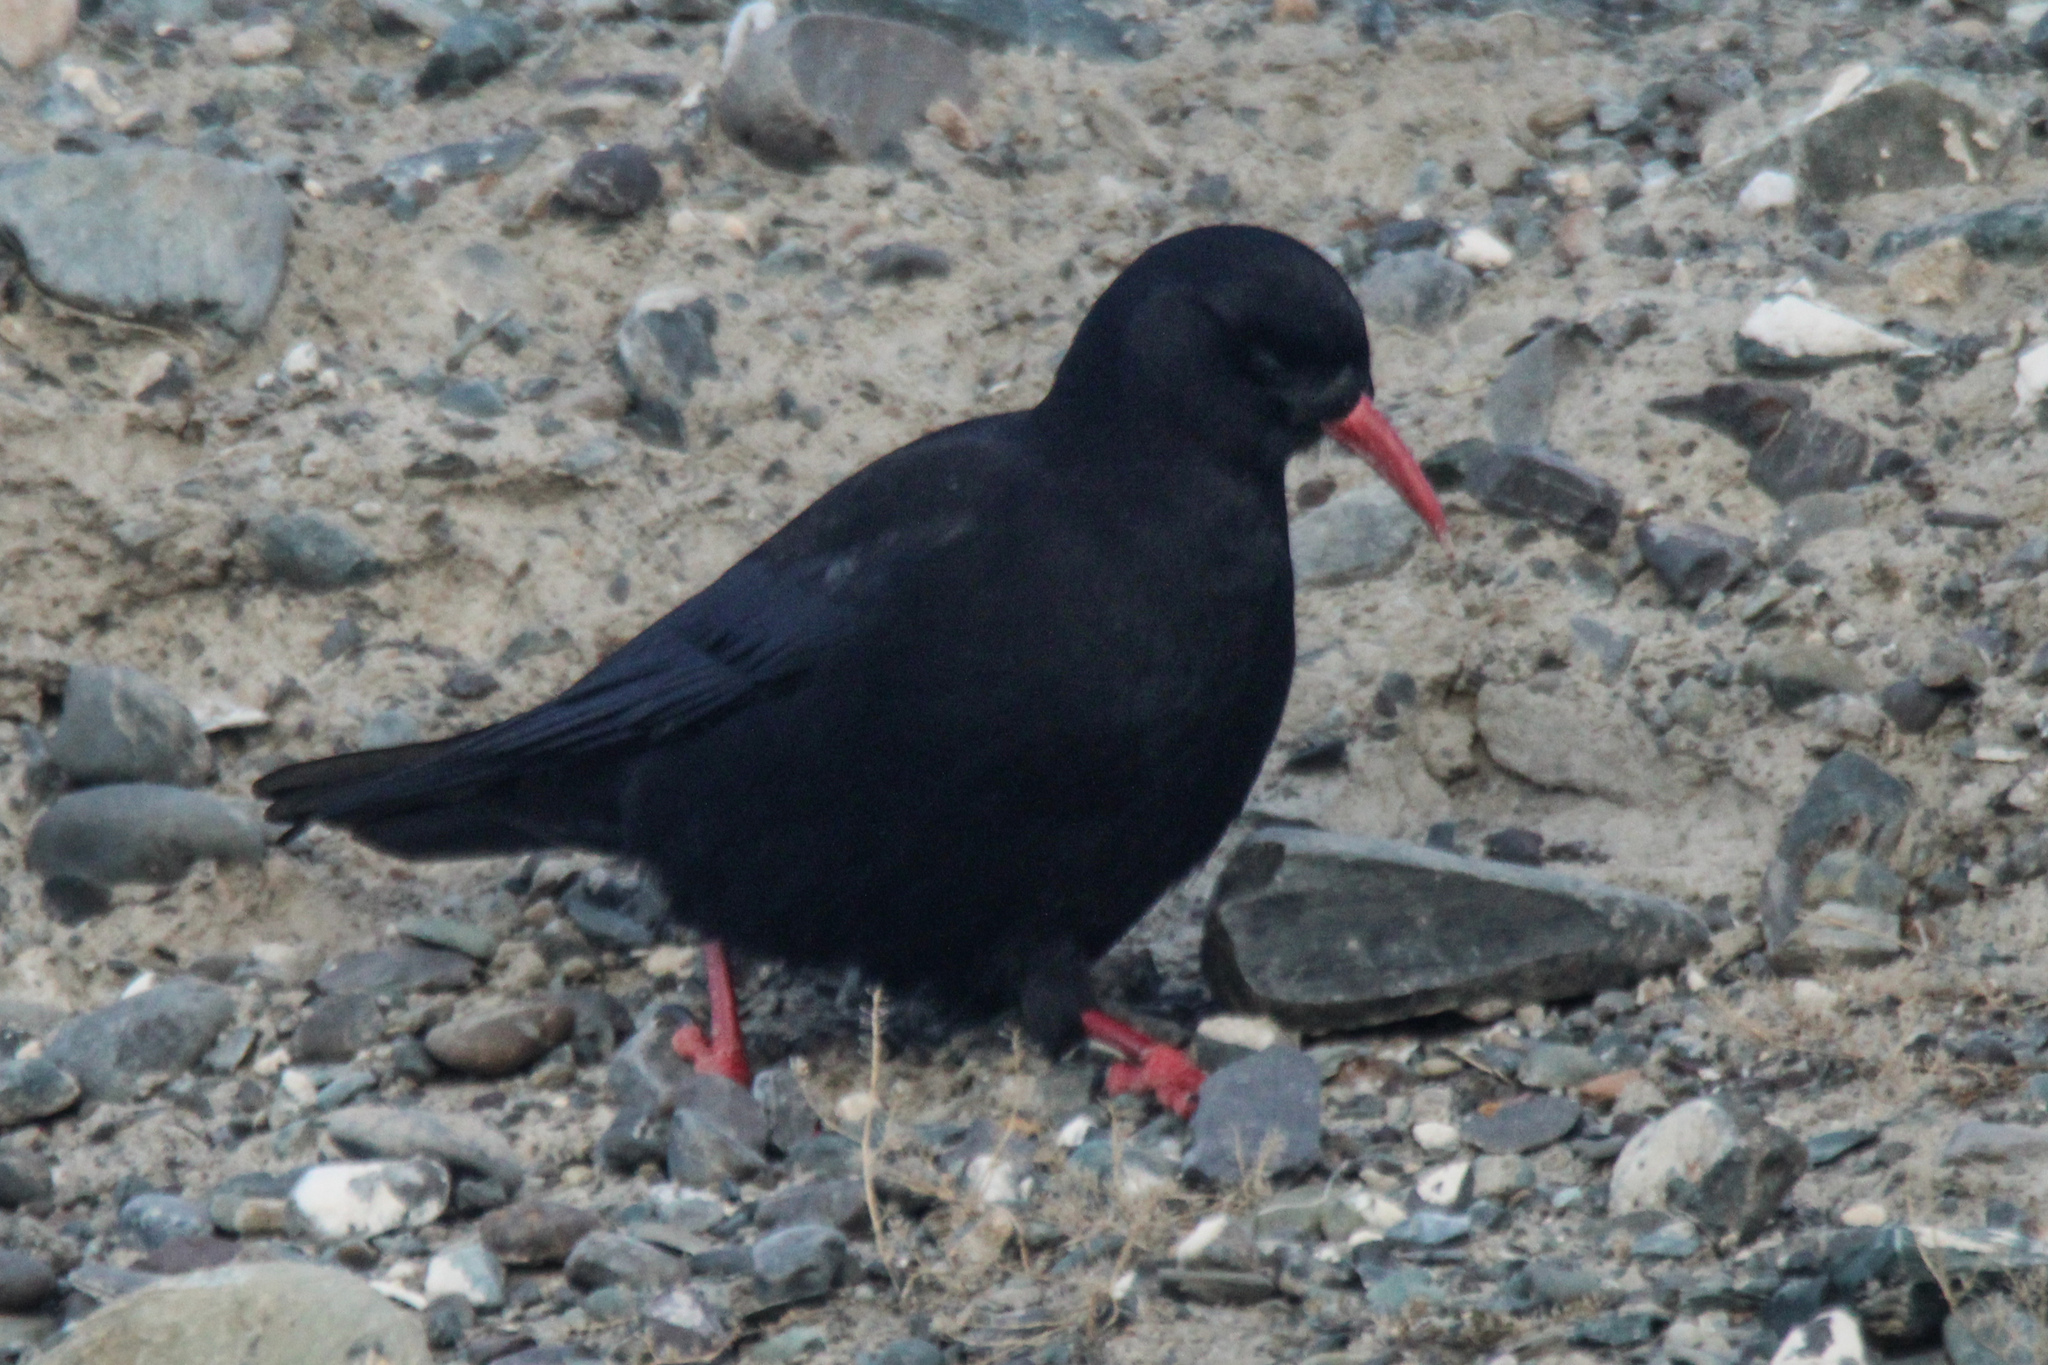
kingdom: Animalia
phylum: Chordata
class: Aves
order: Passeriformes
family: Corvidae
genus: Pyrrhocorax
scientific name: Pyrrhocorax pyrrhocorax
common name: Red-billed chough
